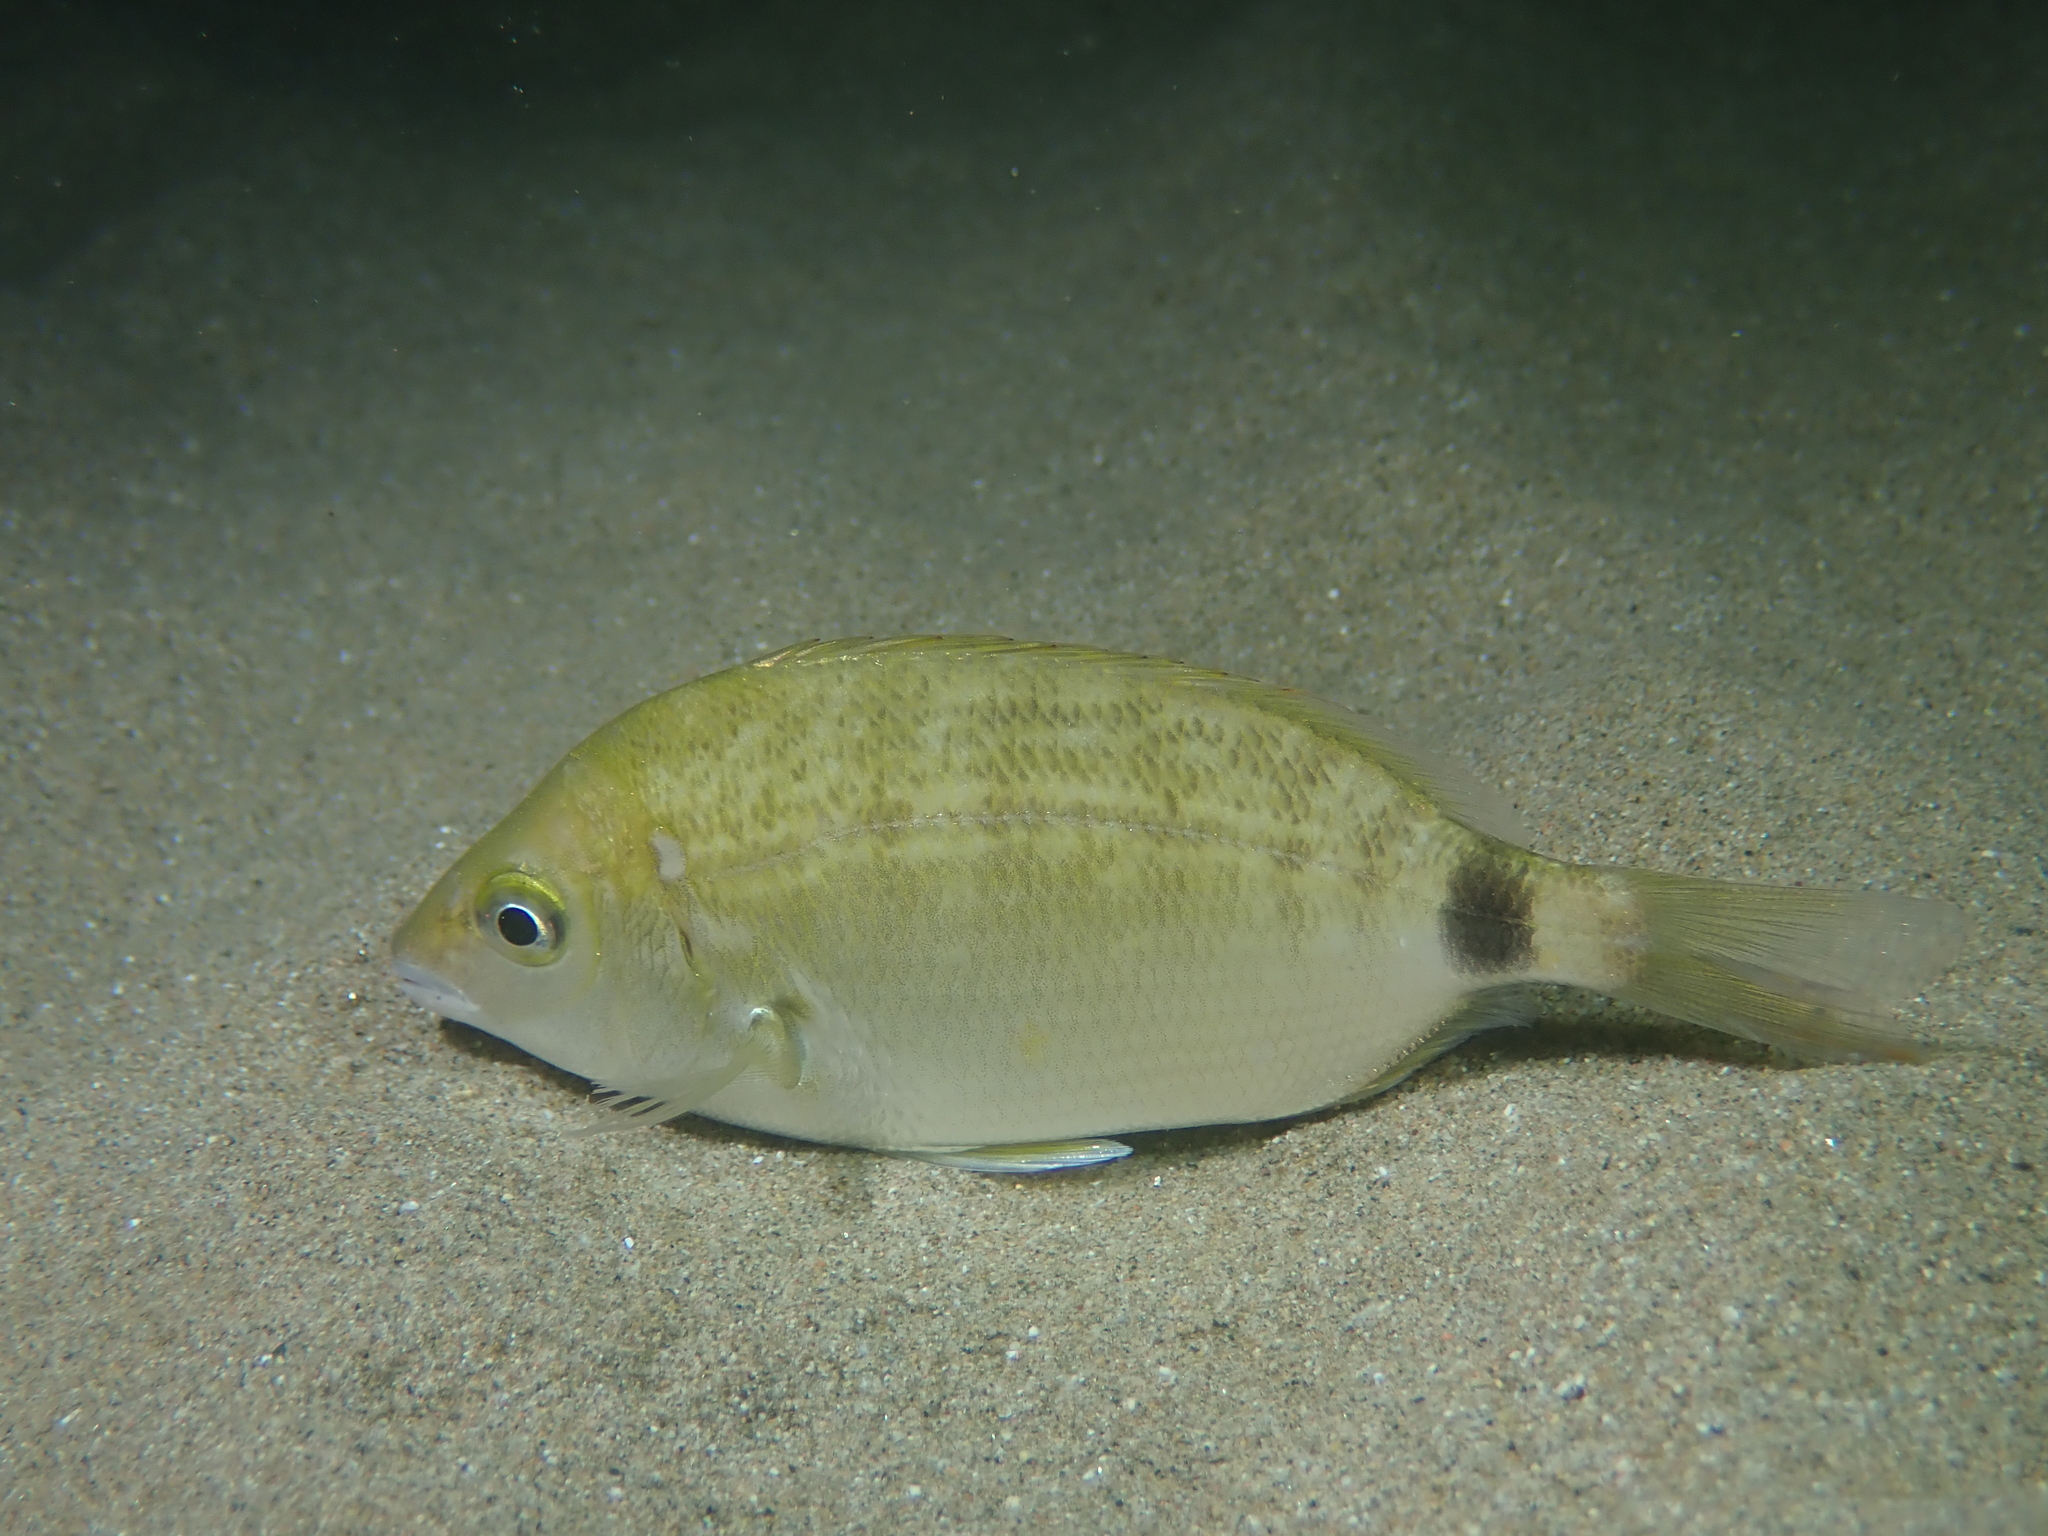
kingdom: Animalia
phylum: Chordata
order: Perciformes
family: Sparidae
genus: Diplodus
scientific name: Diplodus annularis
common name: Annular seabream
